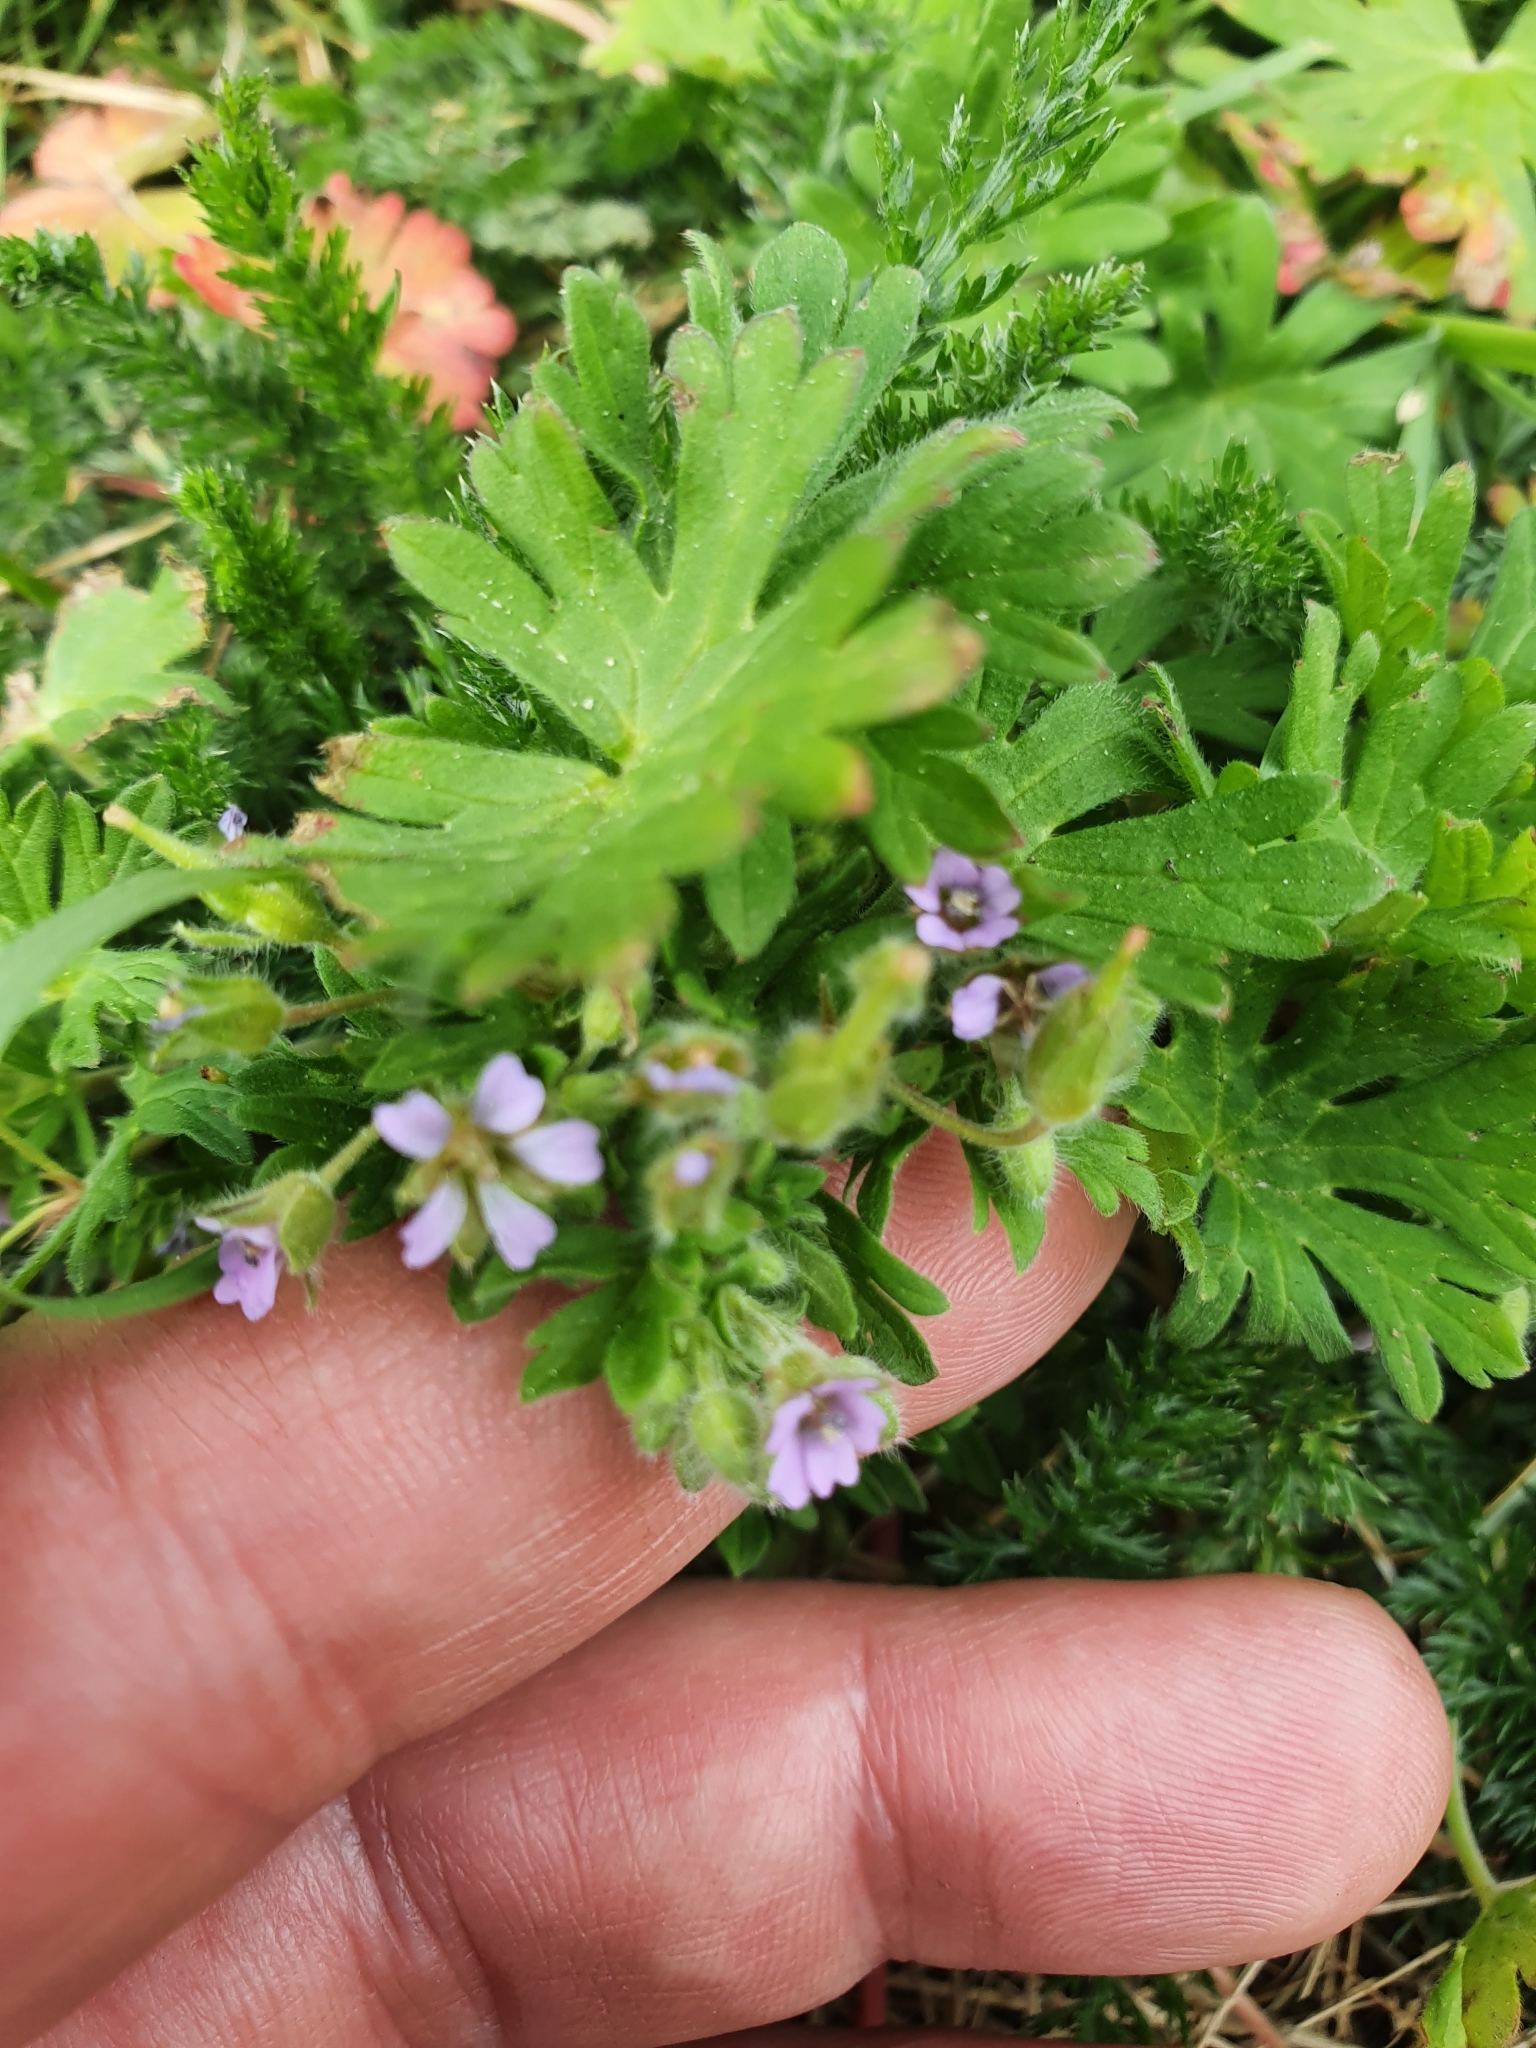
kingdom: Plantae
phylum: Tracheophyta
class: Magnoliopsida
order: Geraniales
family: Geraniaceae
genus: Geranium
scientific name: Geranium pusillum
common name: Small geranium
